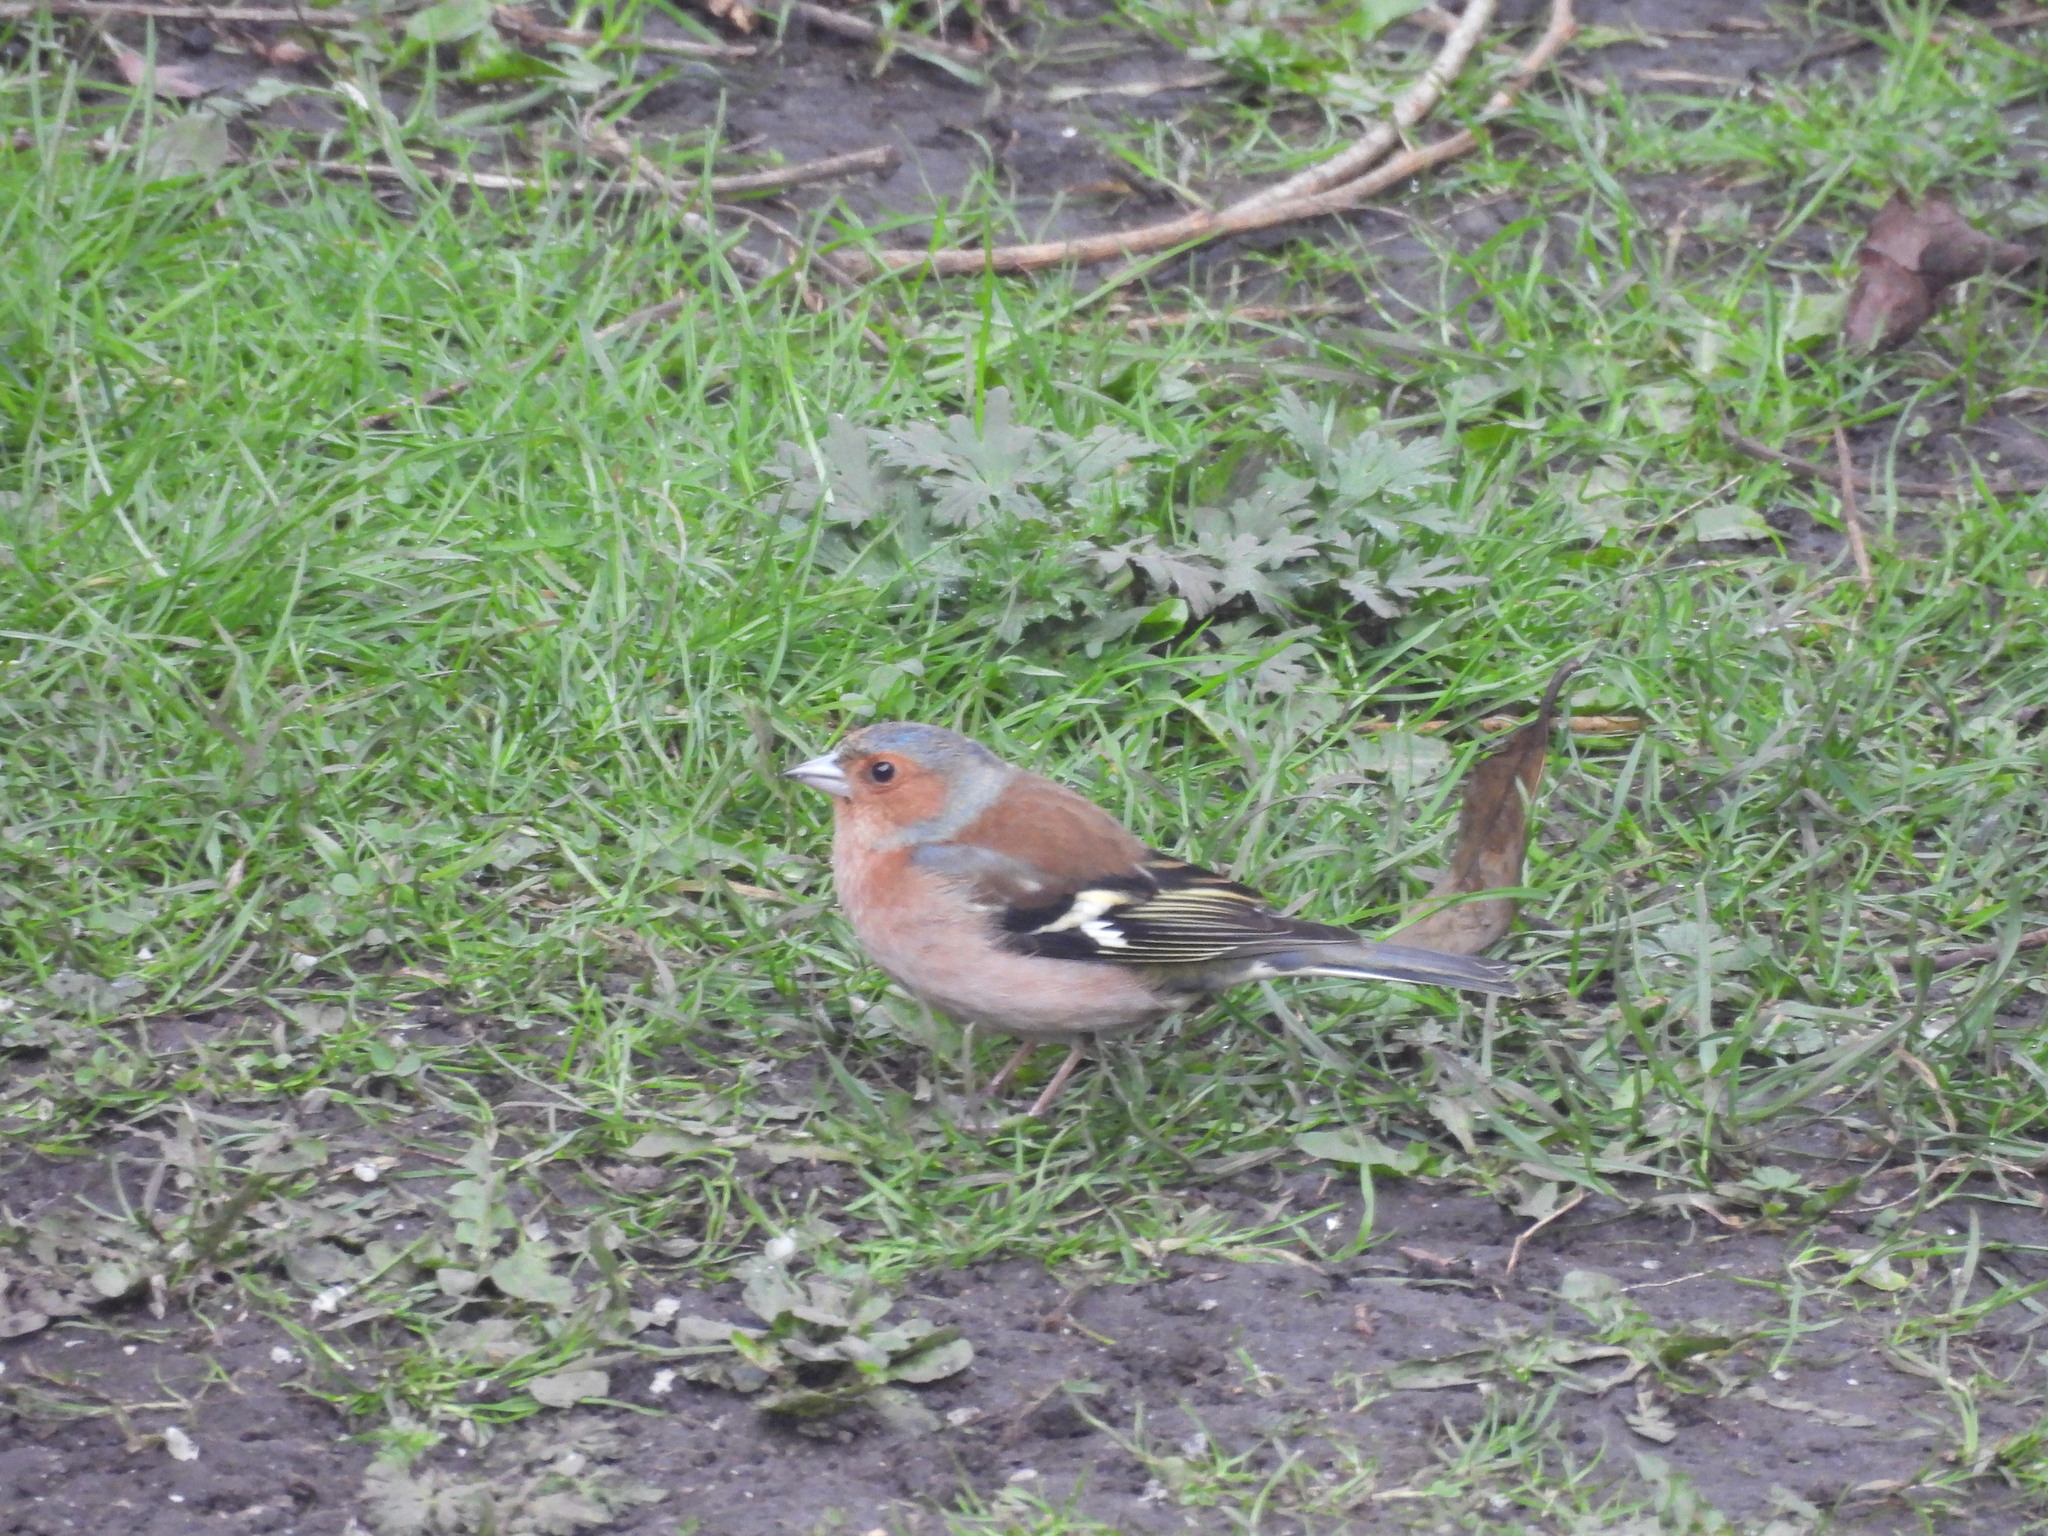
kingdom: Animalia
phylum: Chordata
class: Aves
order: Passeriformes
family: Fringillidae
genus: Fringilla
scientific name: Fringilla coelebs
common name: Common chaffinch
